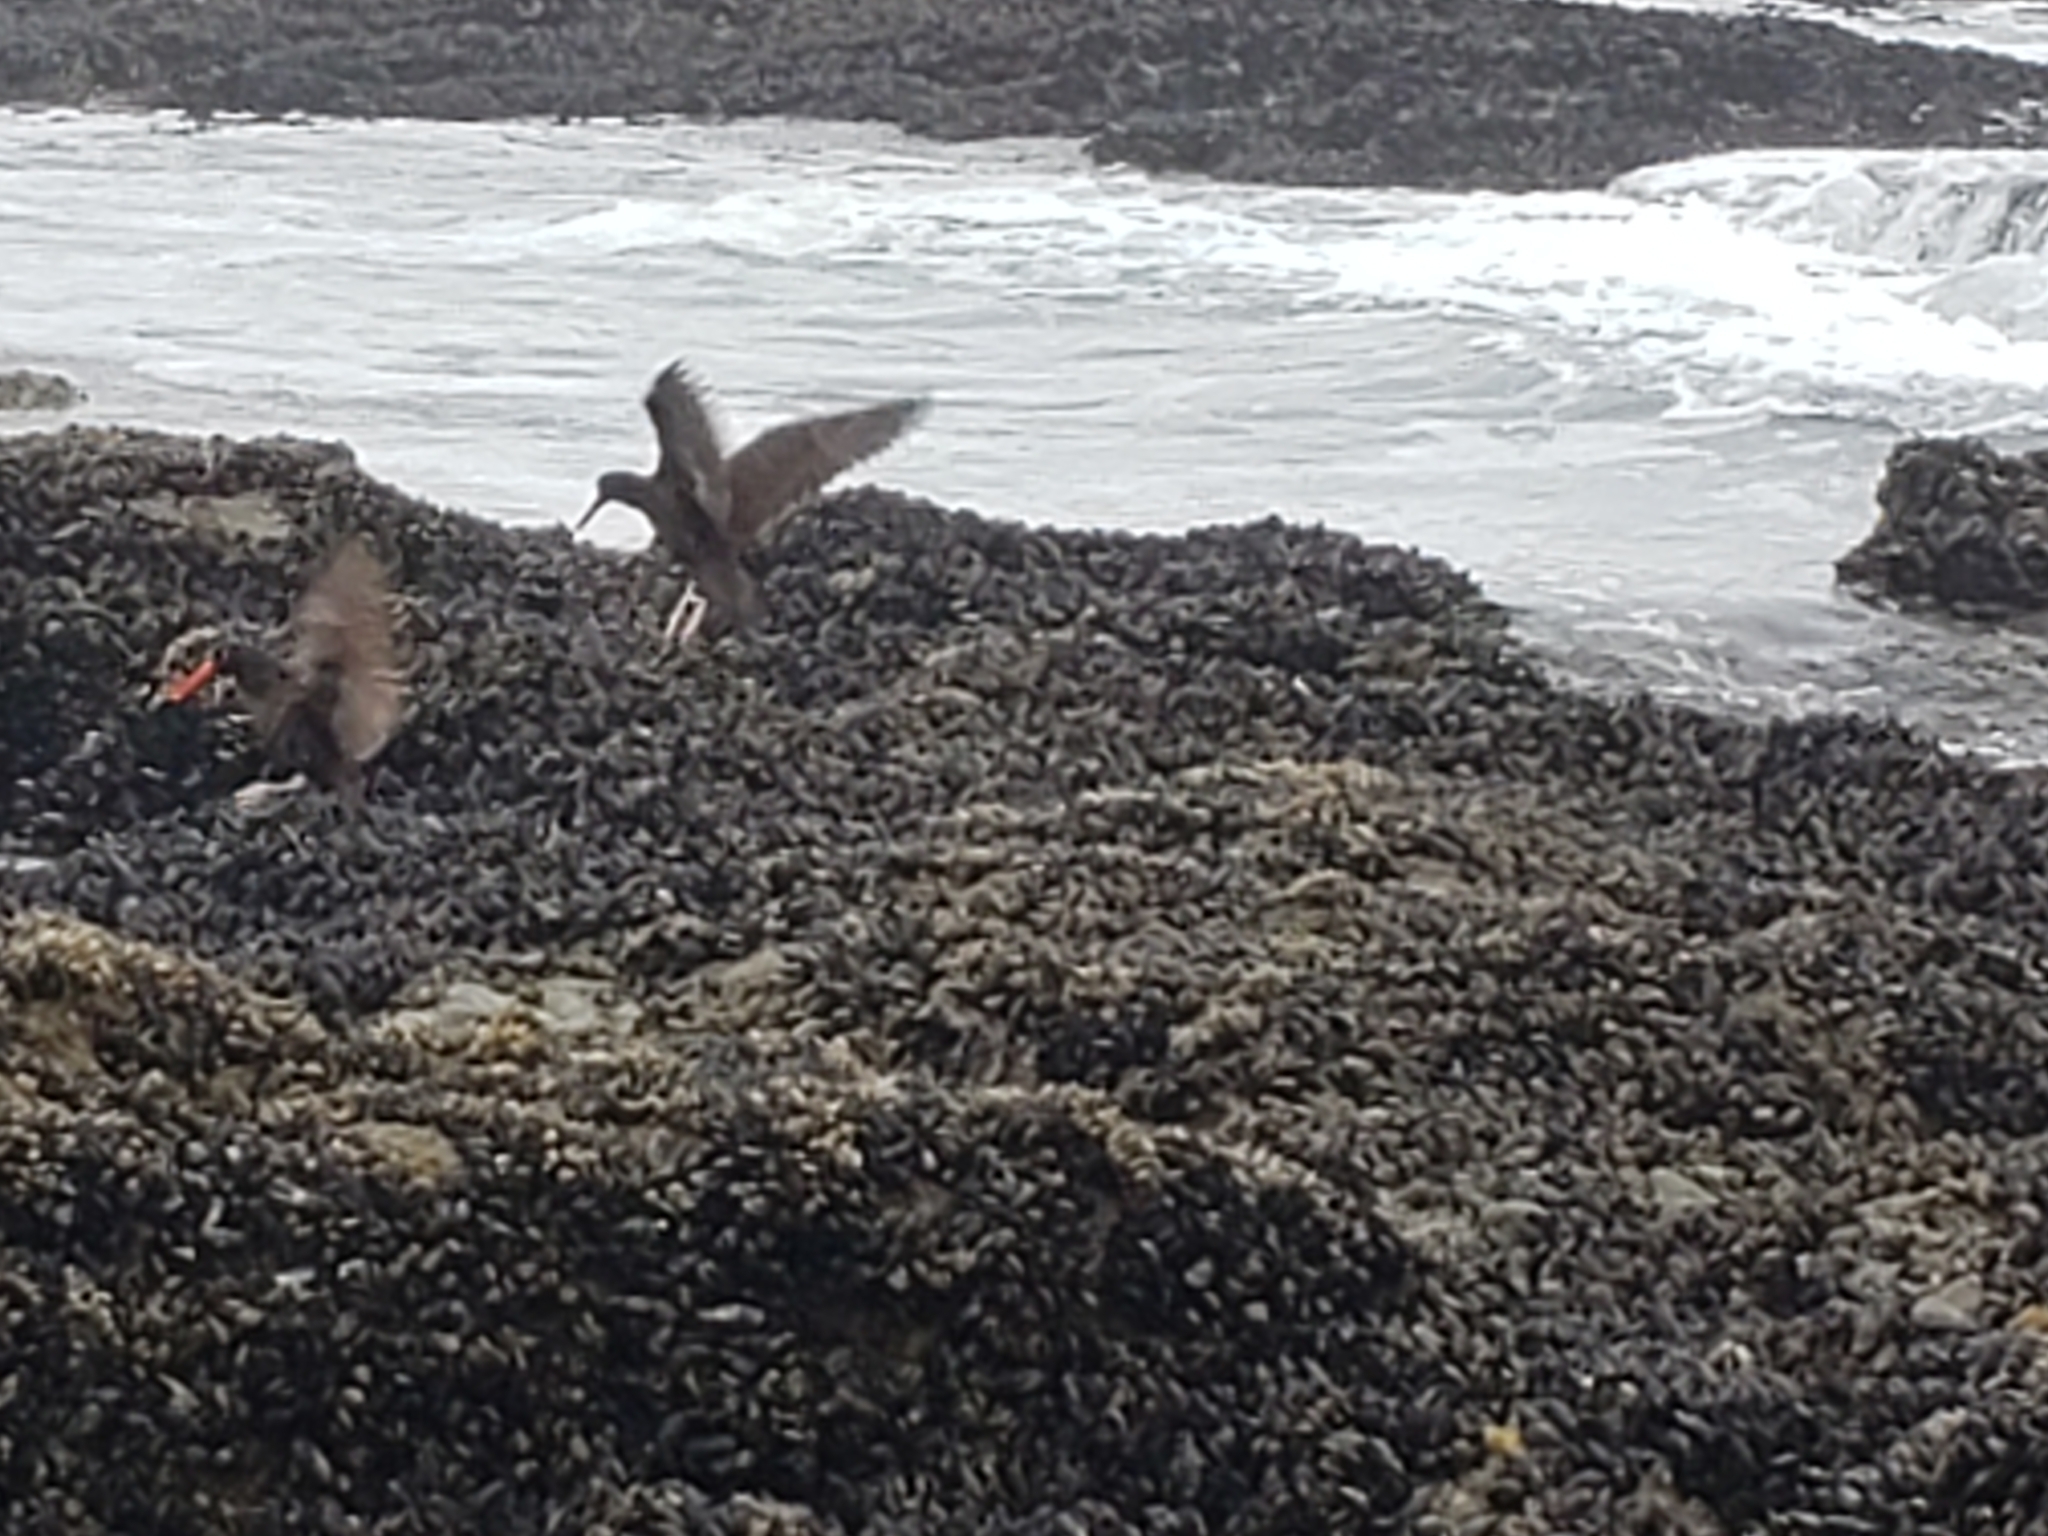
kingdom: Animalia
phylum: Chordata
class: Aves
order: Charadriiformes
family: Haematopodidae
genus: Haematopus
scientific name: Haematopus bachmani
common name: Black oystercatcher
